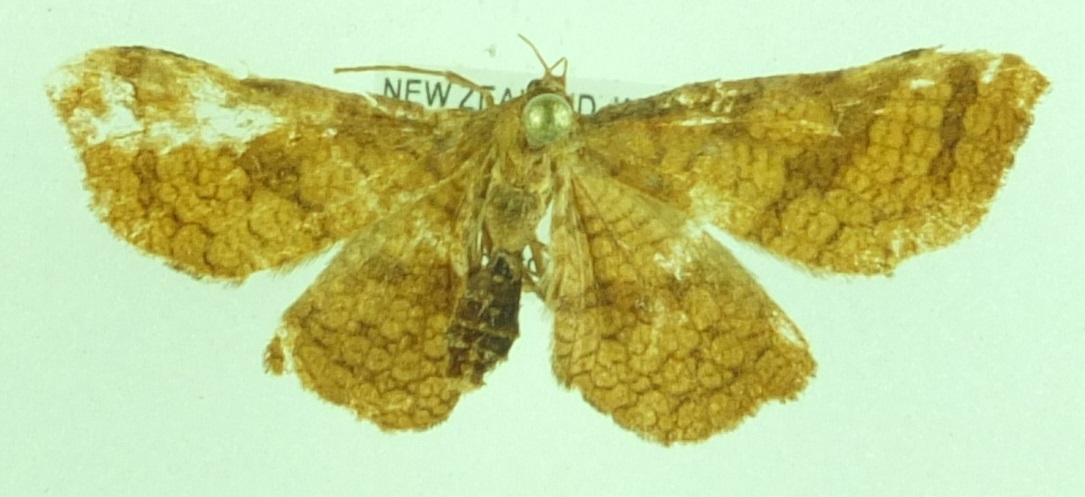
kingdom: Animalia
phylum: Arthropoda
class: Insecta
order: Lepidoptera
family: Thyrididae
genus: Morova
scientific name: Morova subfasciata
